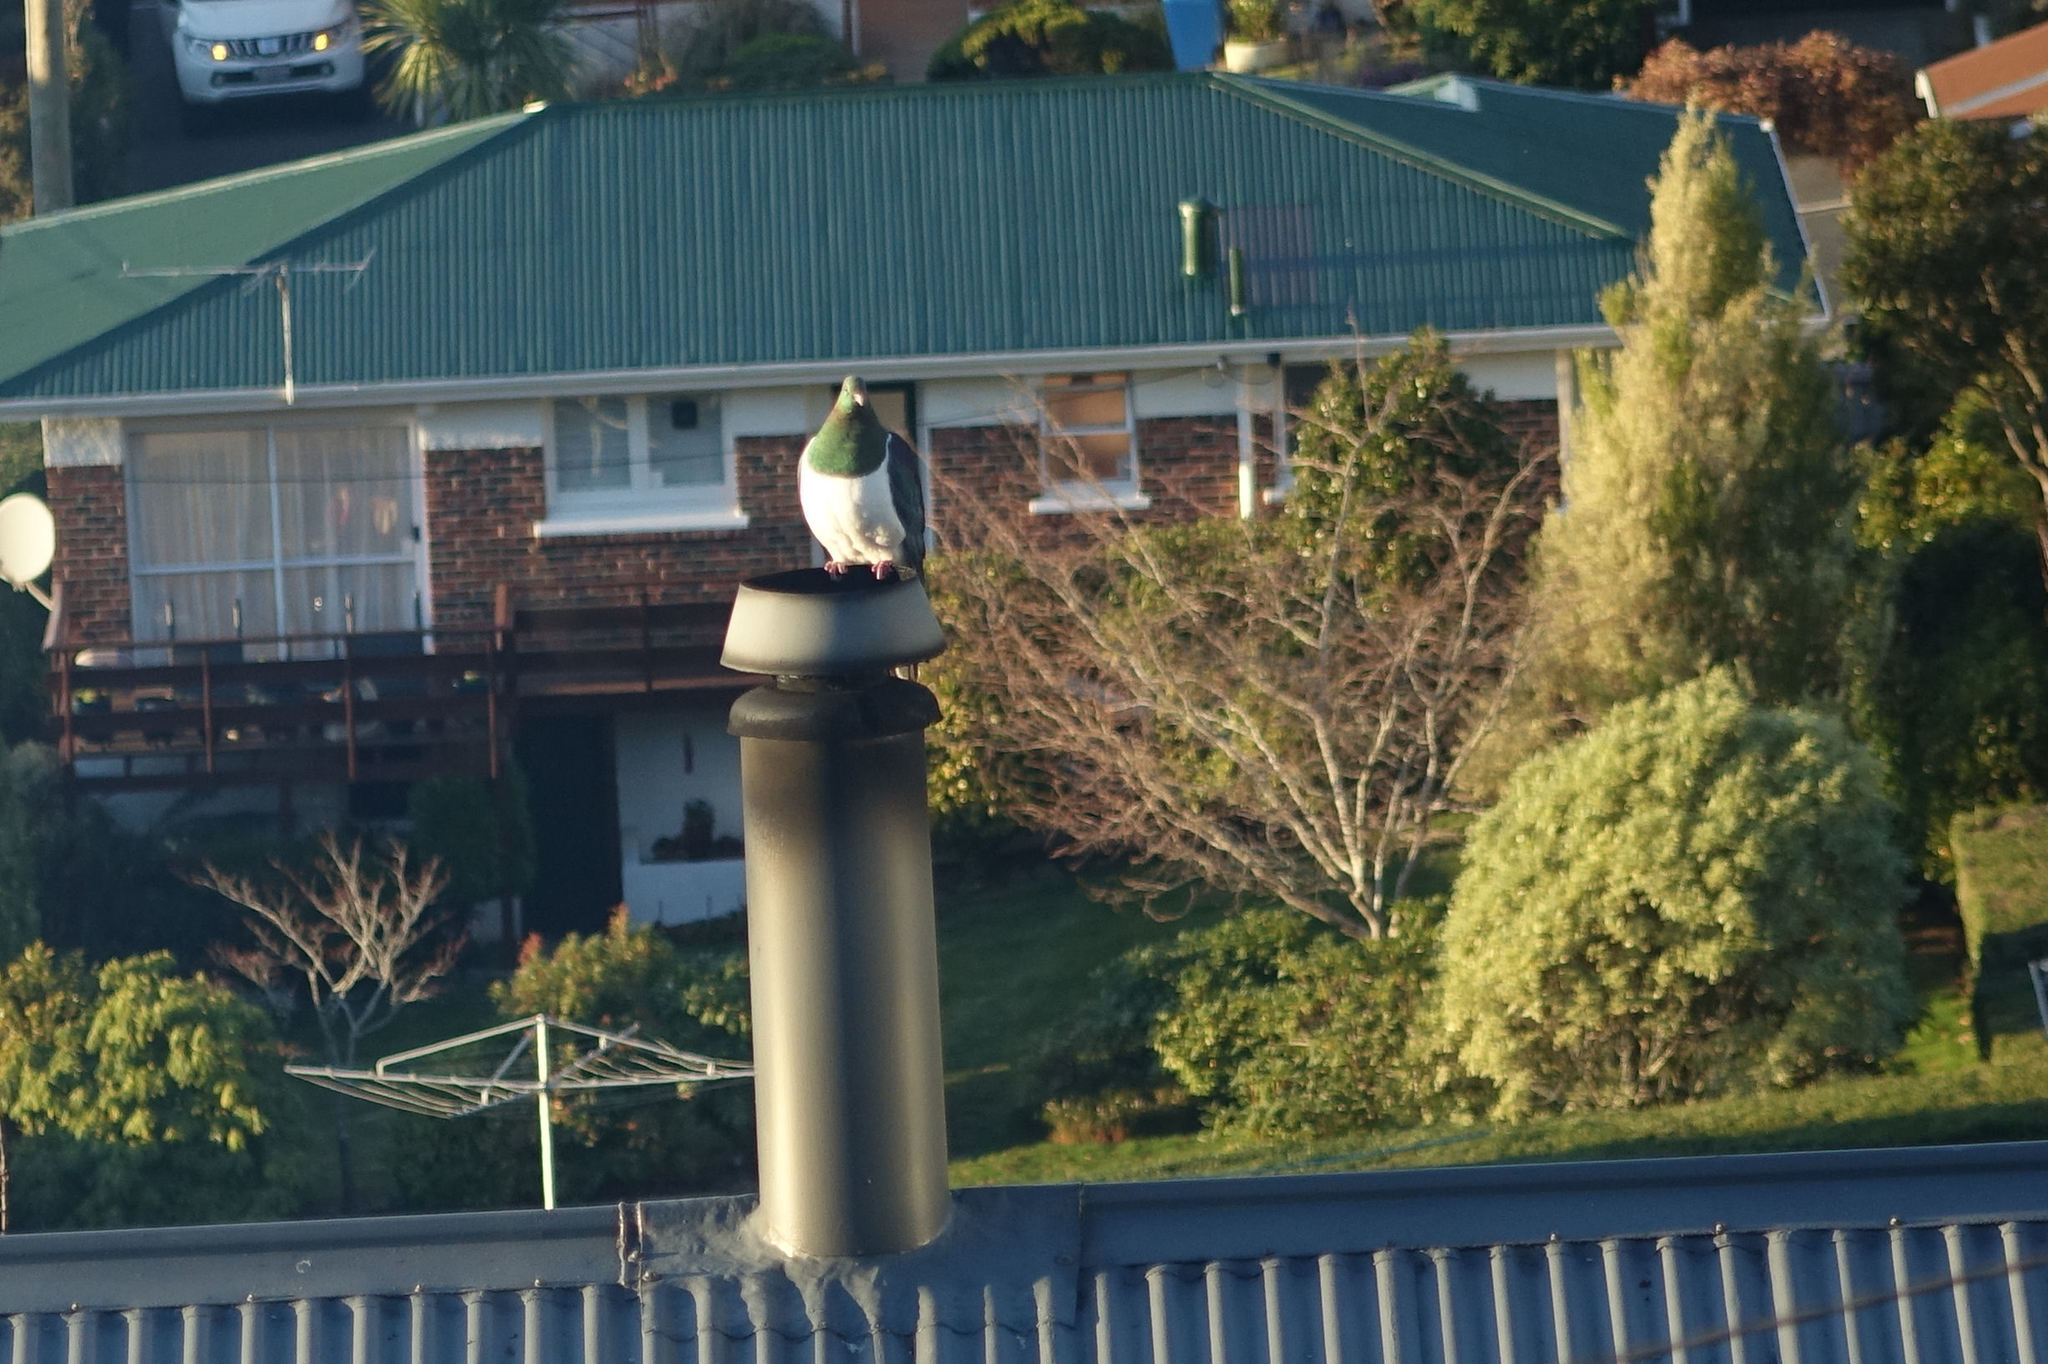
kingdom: Animalia
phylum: Chordata
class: Aves
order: Columbiformes
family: Columbidae
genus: Hemiphaga
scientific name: Hemiphaga novaeseelandiae
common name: New zealand pigeon
